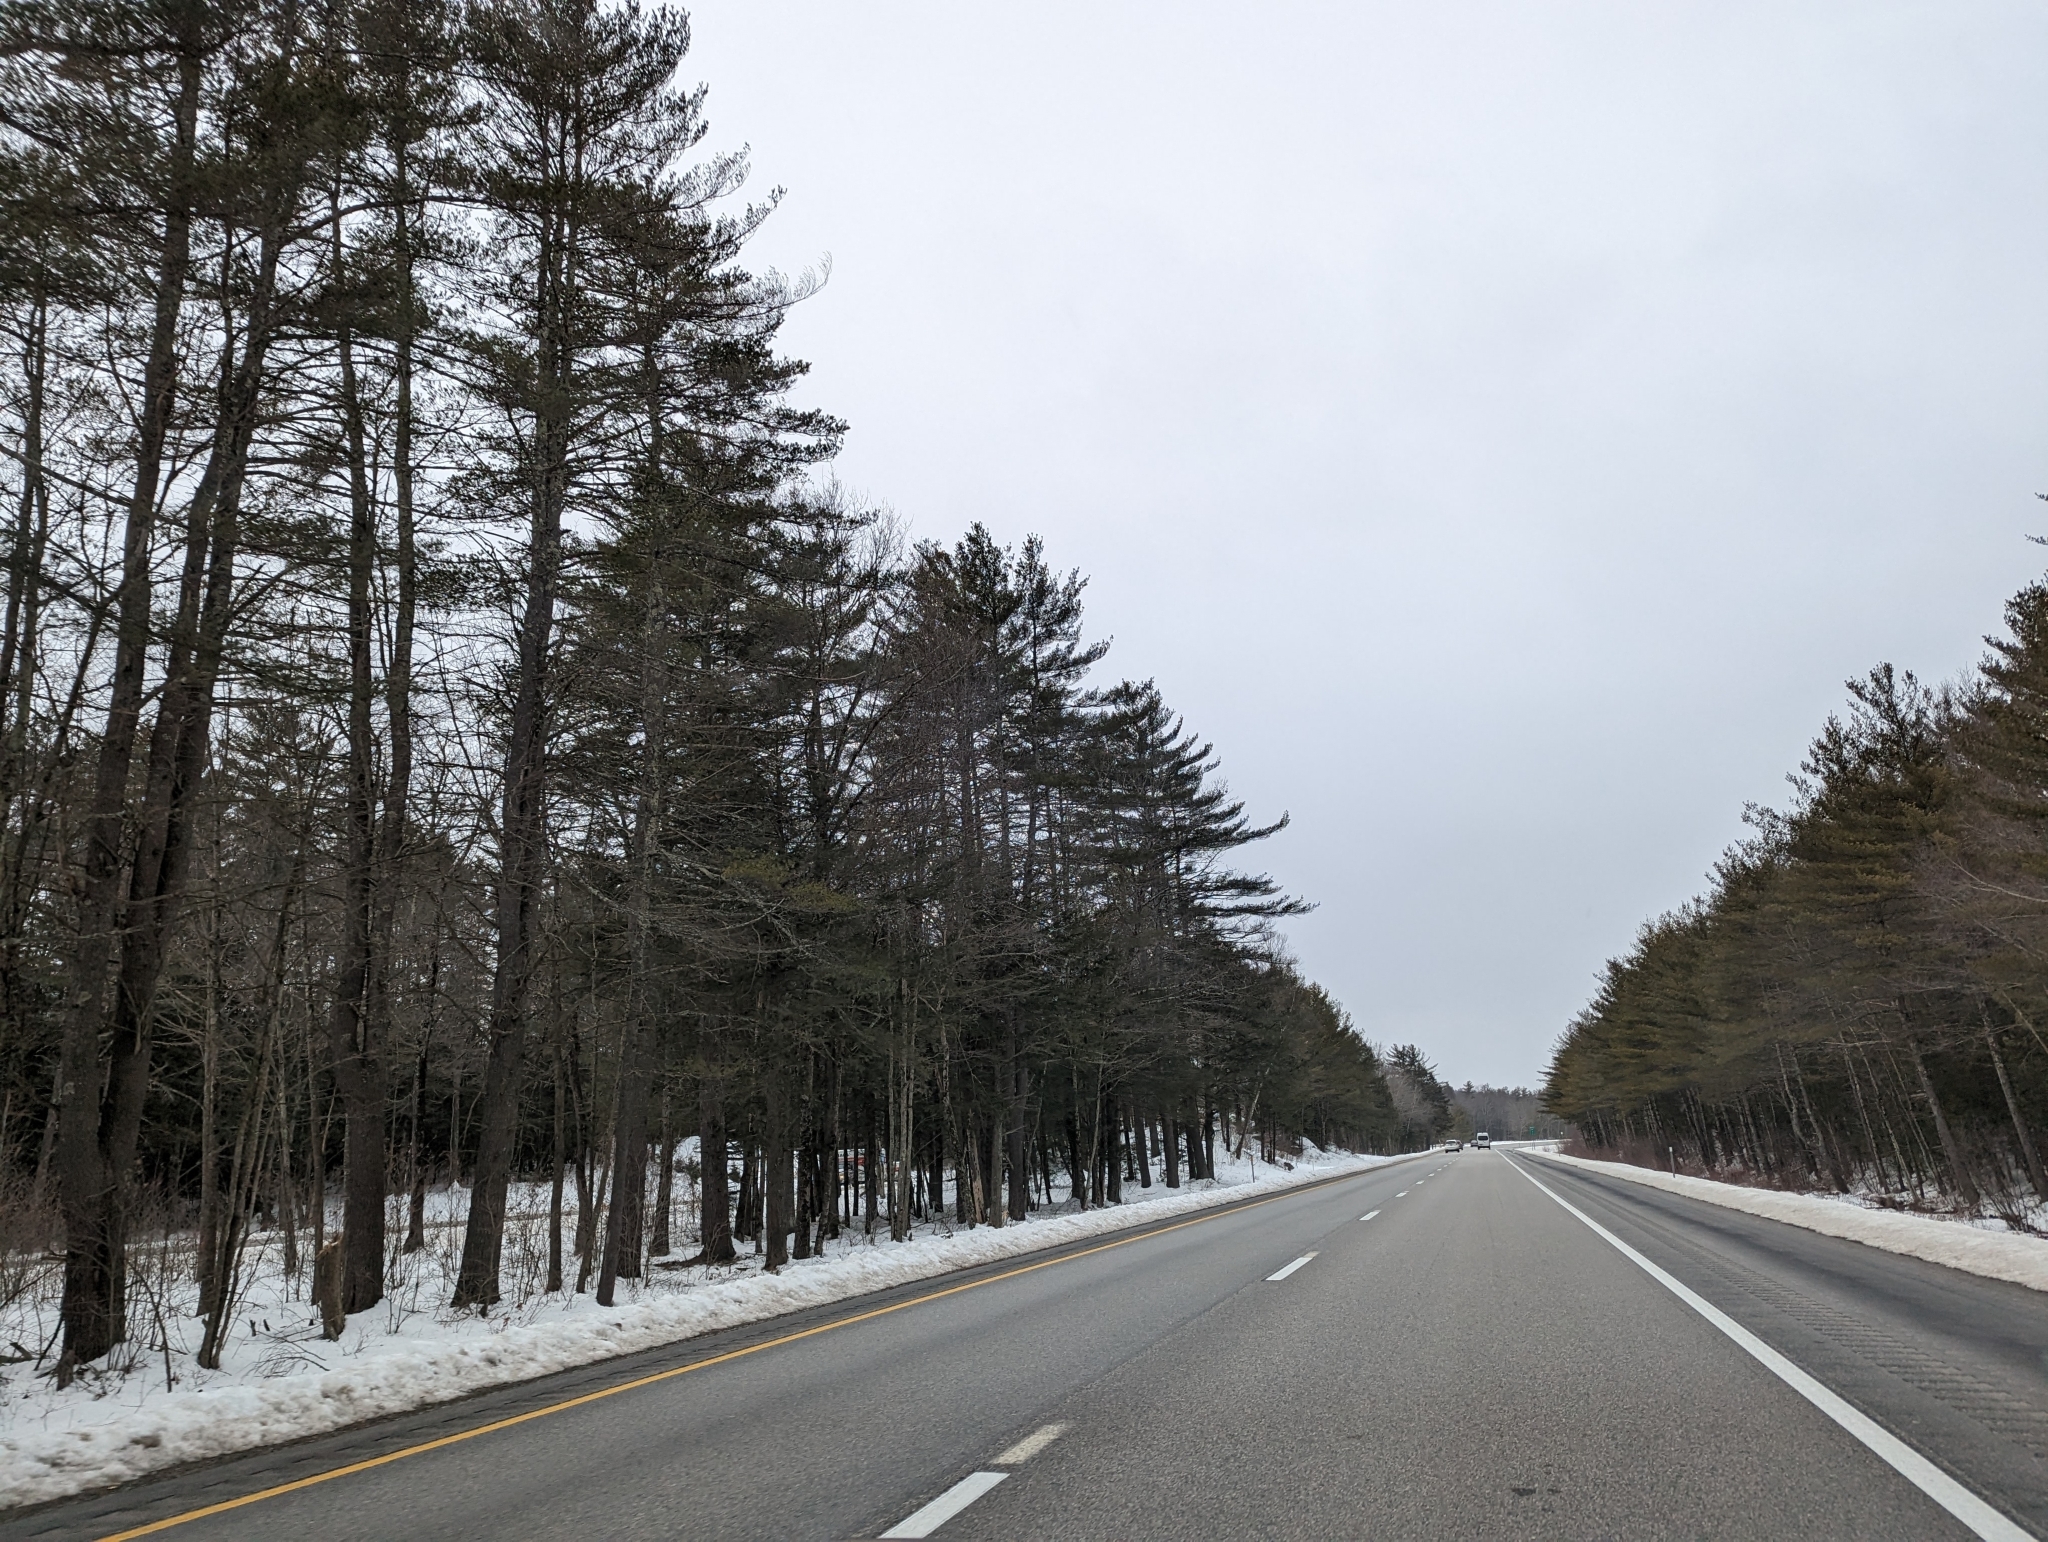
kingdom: Plantae
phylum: Tracheophyta
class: Pinopsida
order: Pinales
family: Pinaceae
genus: Pinus
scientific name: Pinus strobus
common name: Weymouth pine
